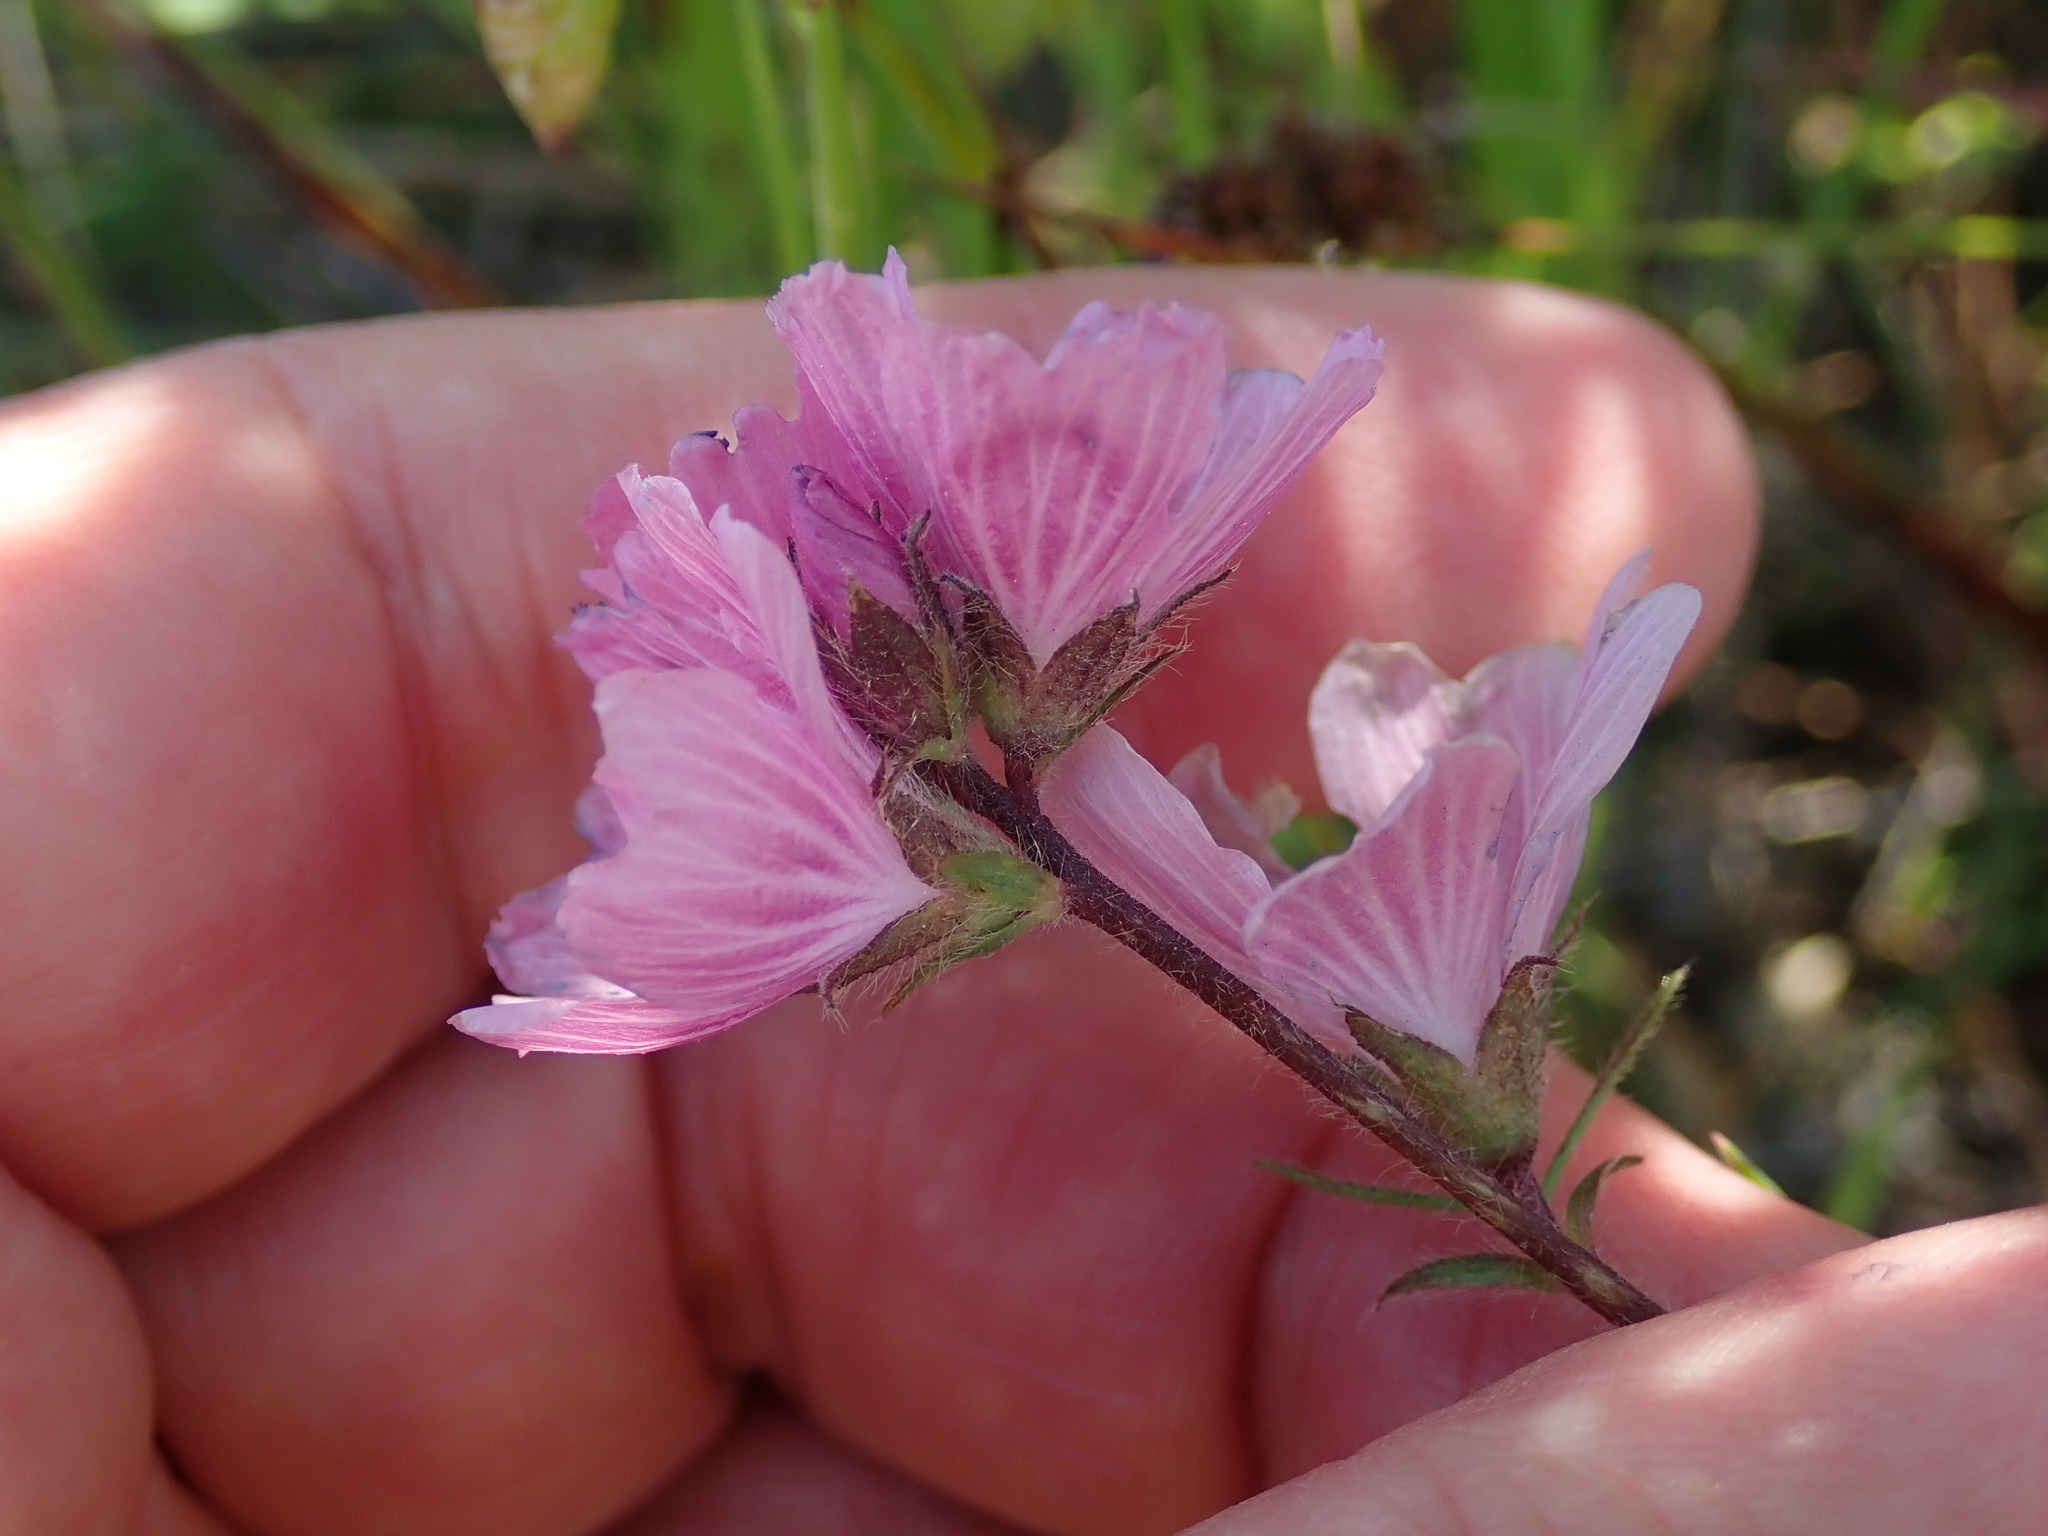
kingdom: Plantae
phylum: Tracheophyta
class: Magnoliopsida
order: Malvales
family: Malvaceae
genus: Sidalcea
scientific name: Sidalcea malviflora
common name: Greek mallow
